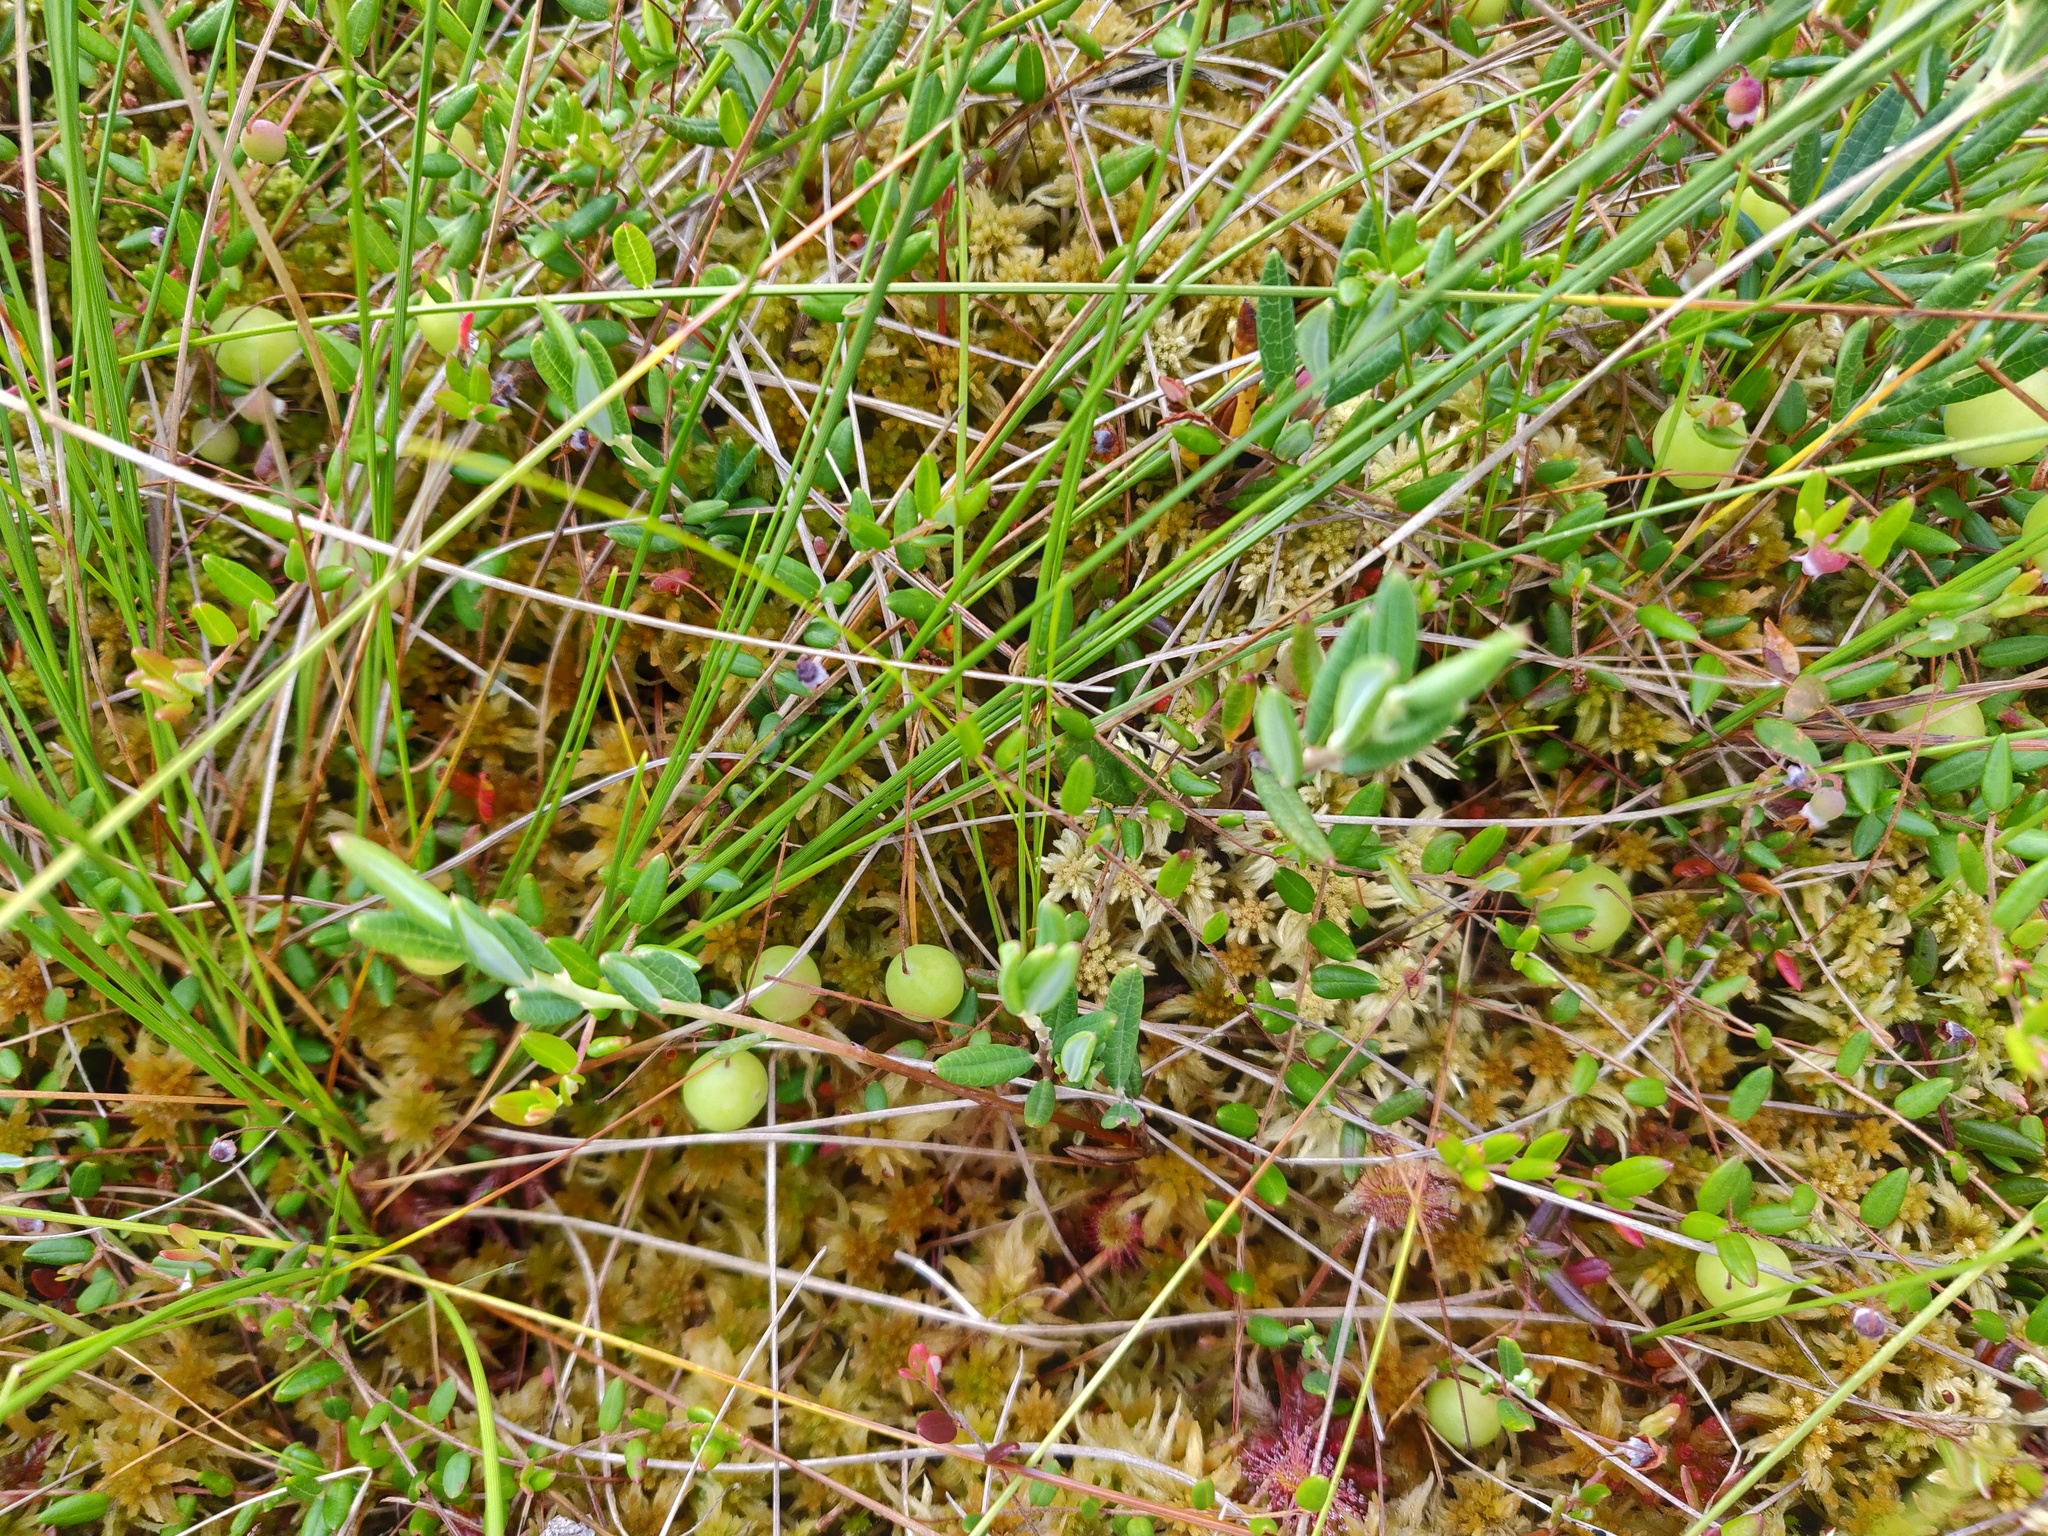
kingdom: Plantae
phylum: Tracheophyta
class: Magnoliopsida
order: Ericales
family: Ericaceae
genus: Vaccinium
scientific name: Vaccinium oxycoccos
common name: Cranberry
